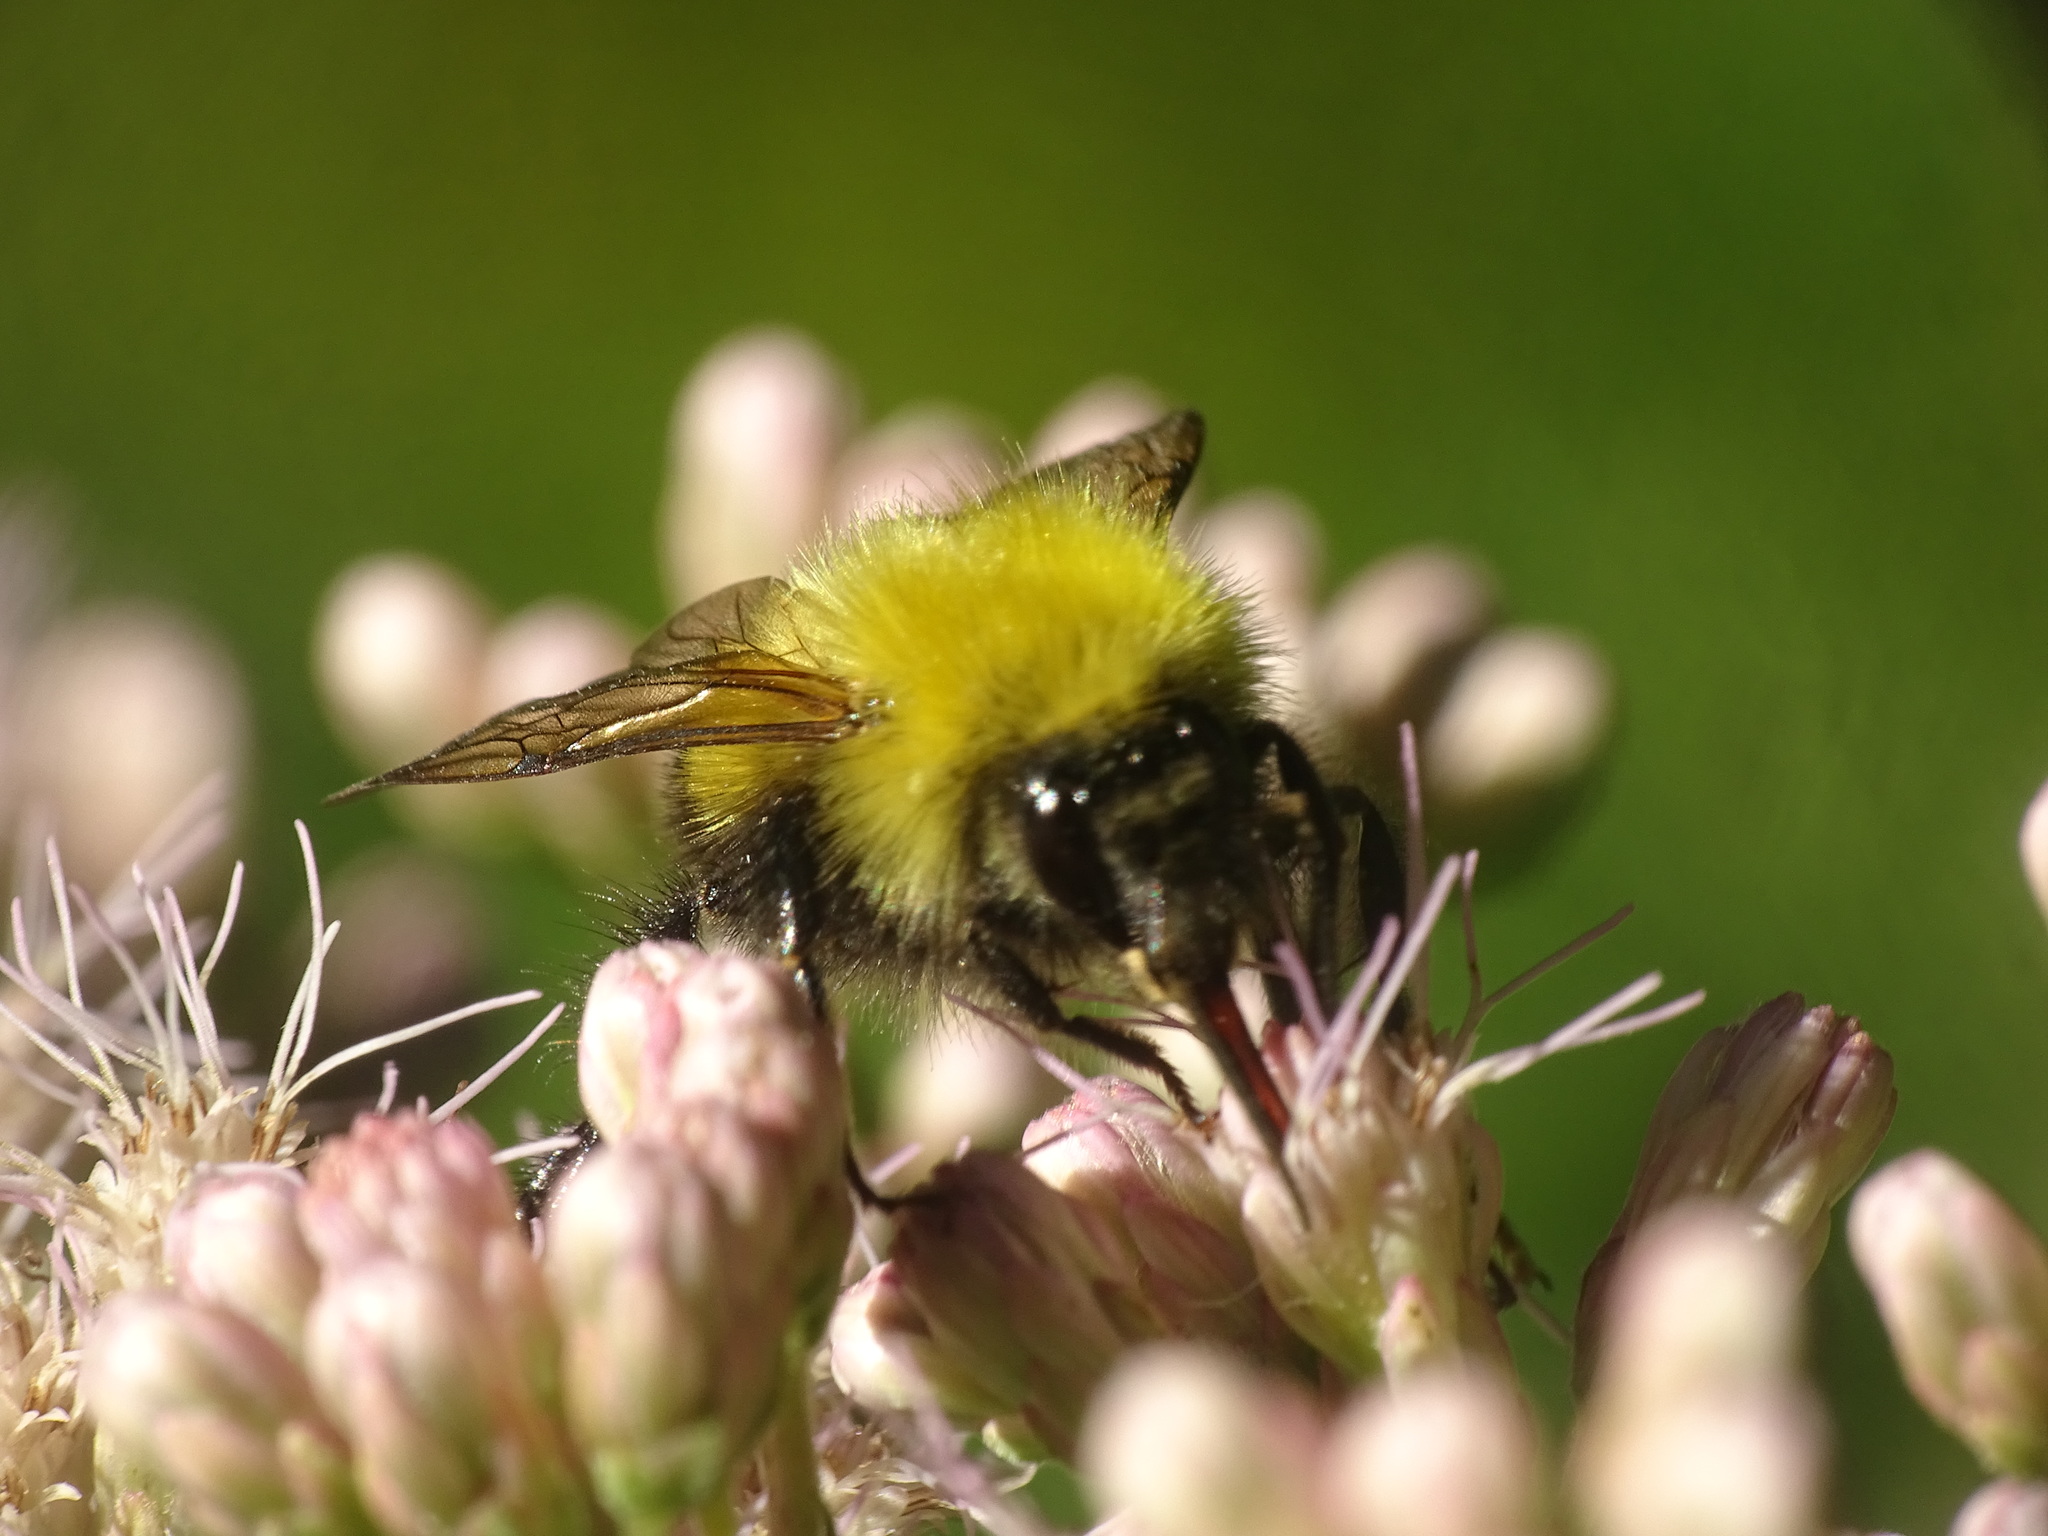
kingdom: Animalia
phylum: Arthropoda
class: Insecta
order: Hymenoptera
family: Apidae
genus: Bombus
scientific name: Bombus perplexus
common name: Confusing bumble bee
